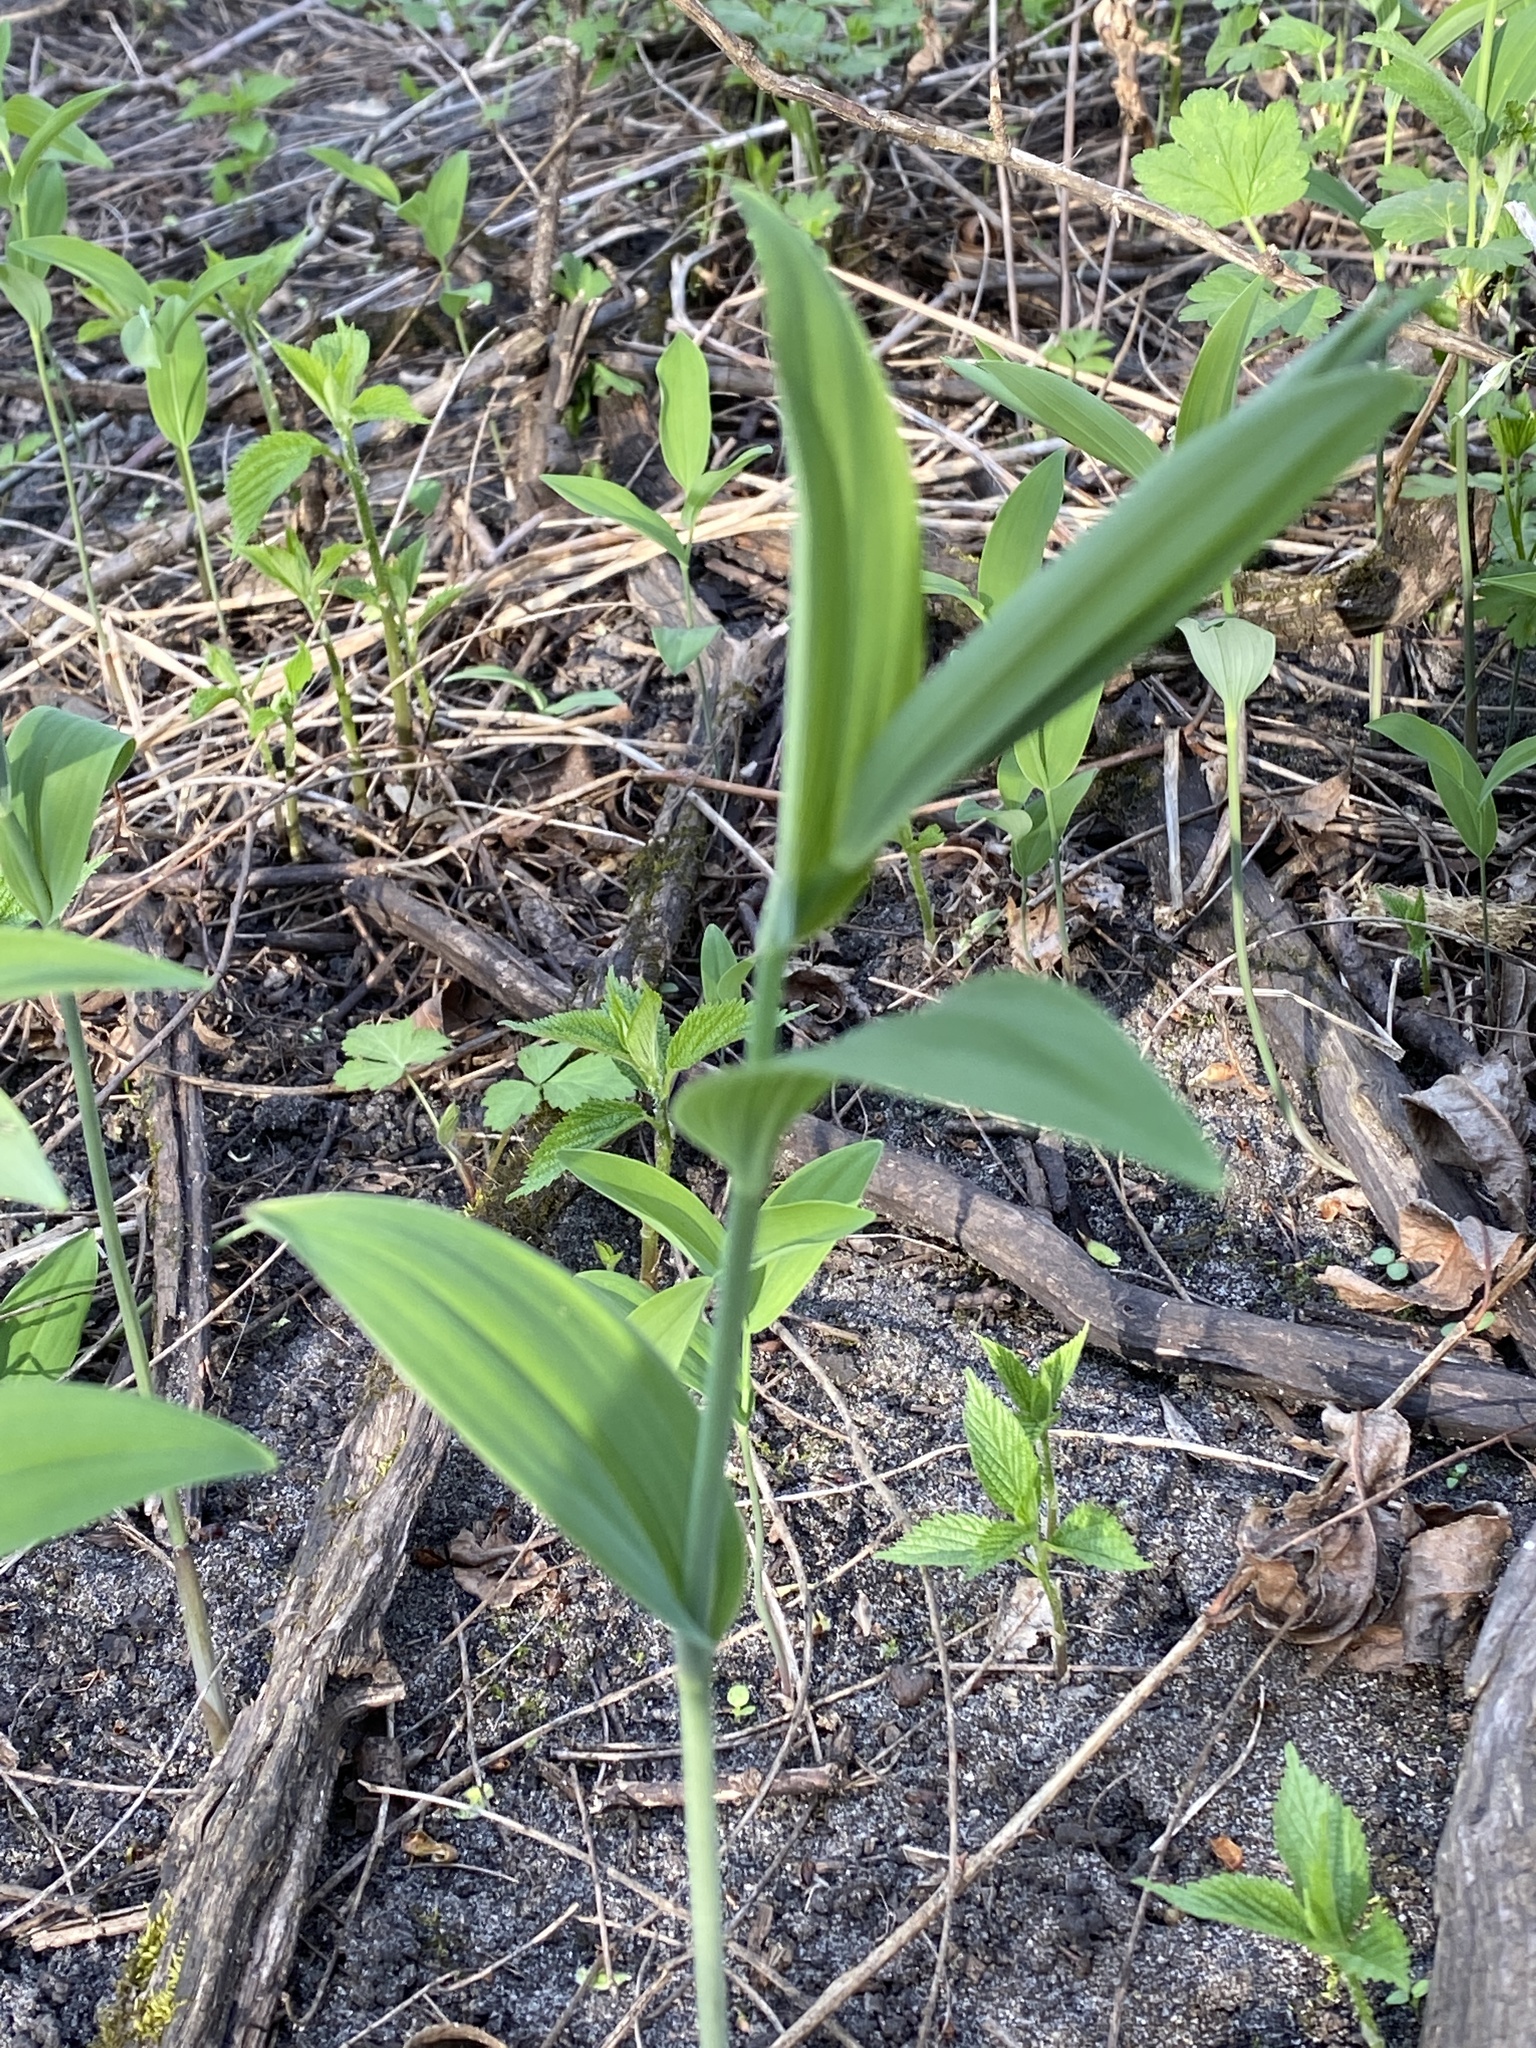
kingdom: Plantae
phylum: Tracheophyta
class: Liliopsida
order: Asparagales
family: Asparagaceae
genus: Polygonatum
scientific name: Polygonatum biflorum
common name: American solomon's-seal
